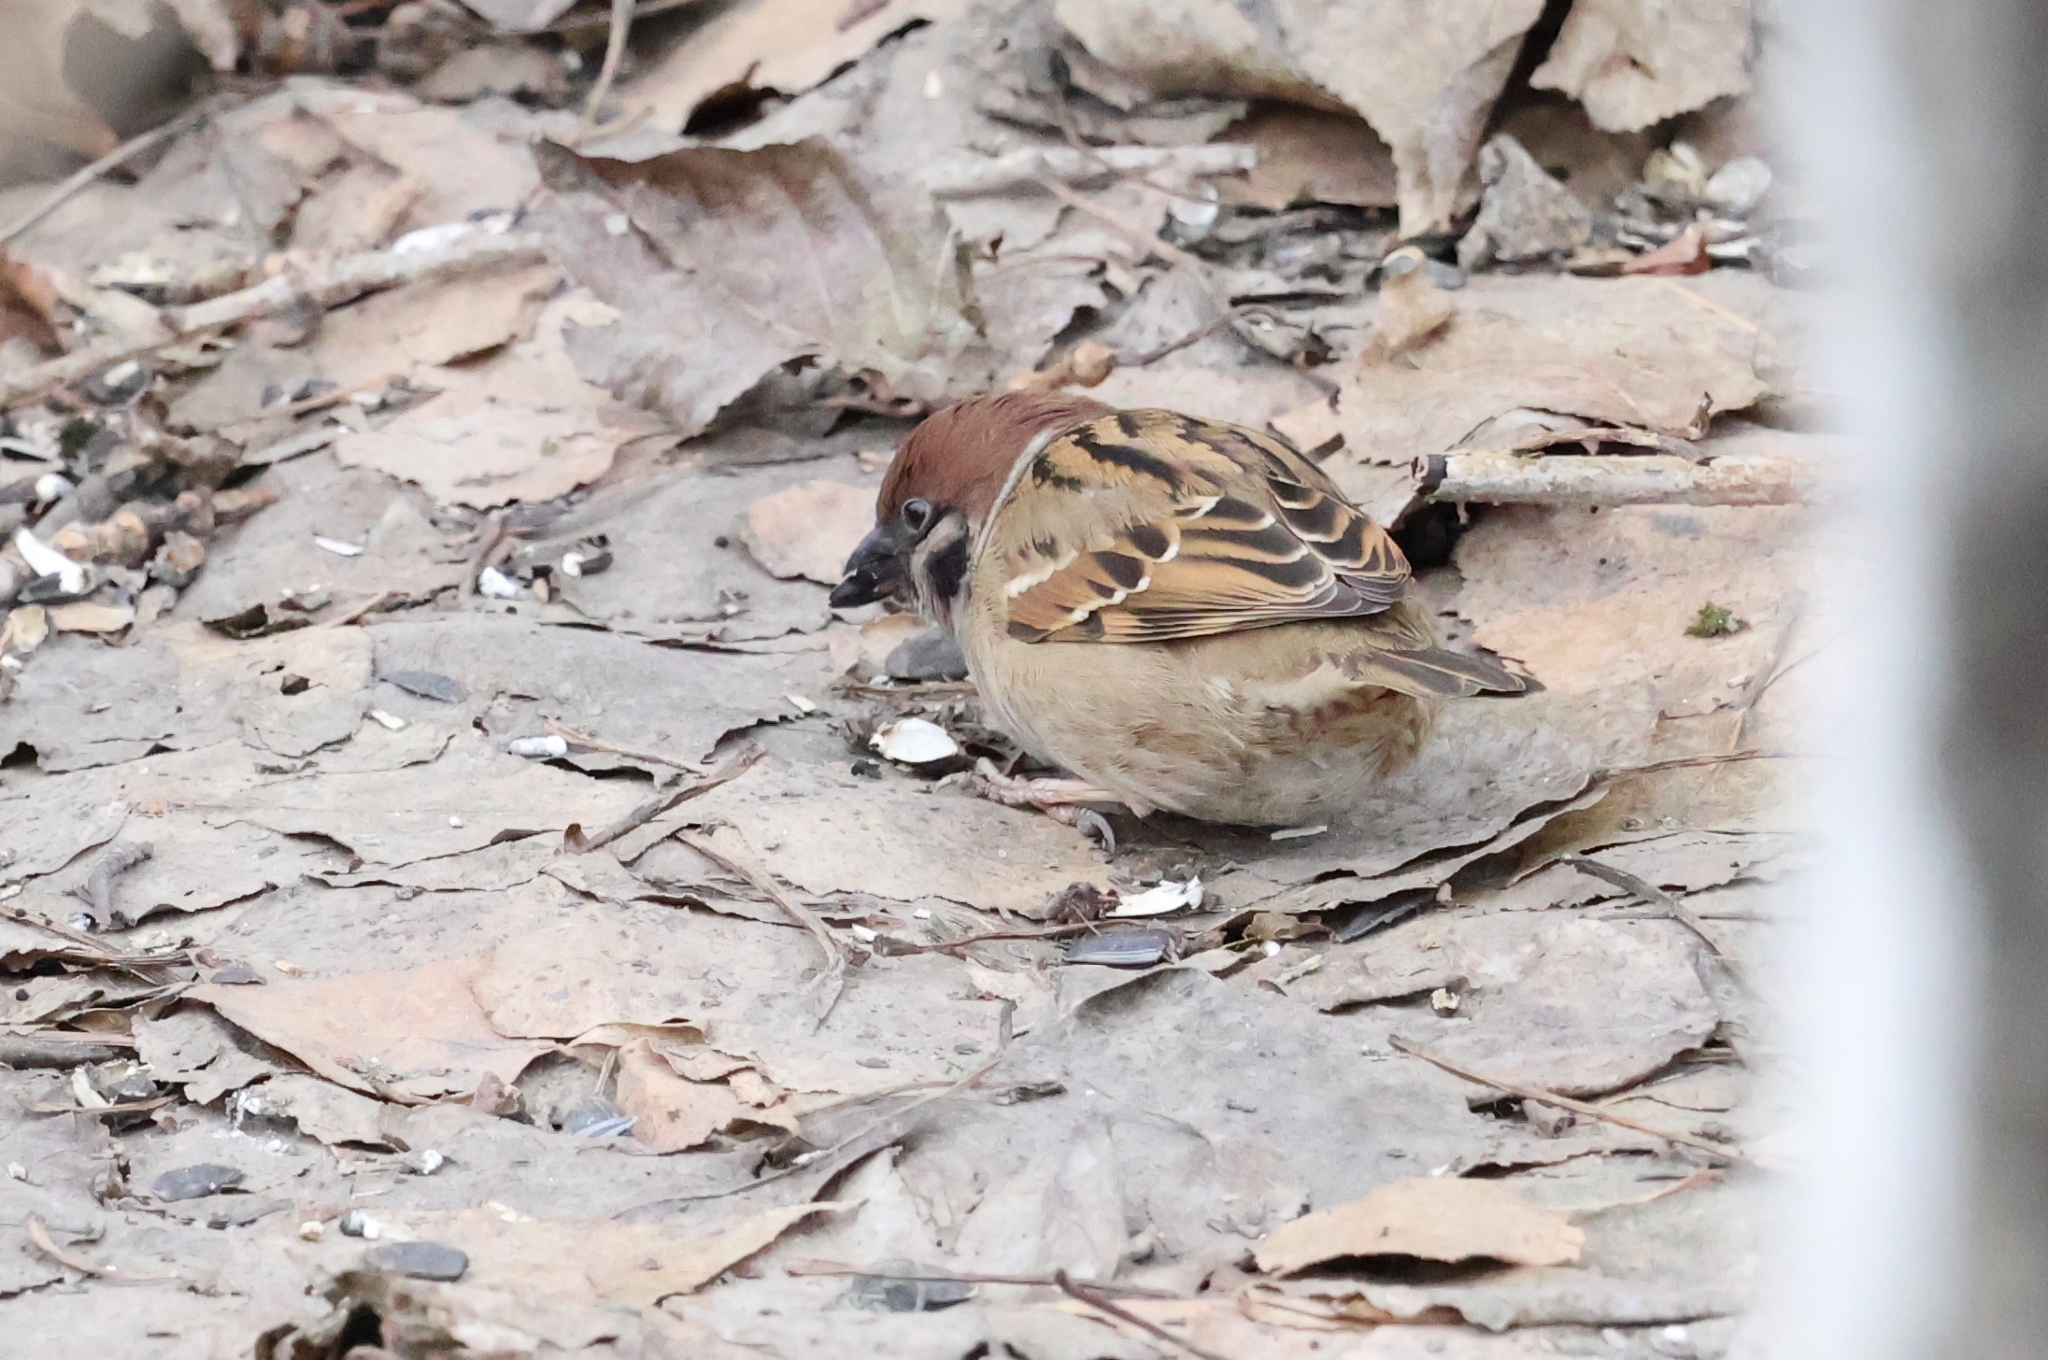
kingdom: Animalia
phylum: Chordata
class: Aves
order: Passeriformes
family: Passeridae
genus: Passer
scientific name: Passer montanus
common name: Eurasian tree sparrow
